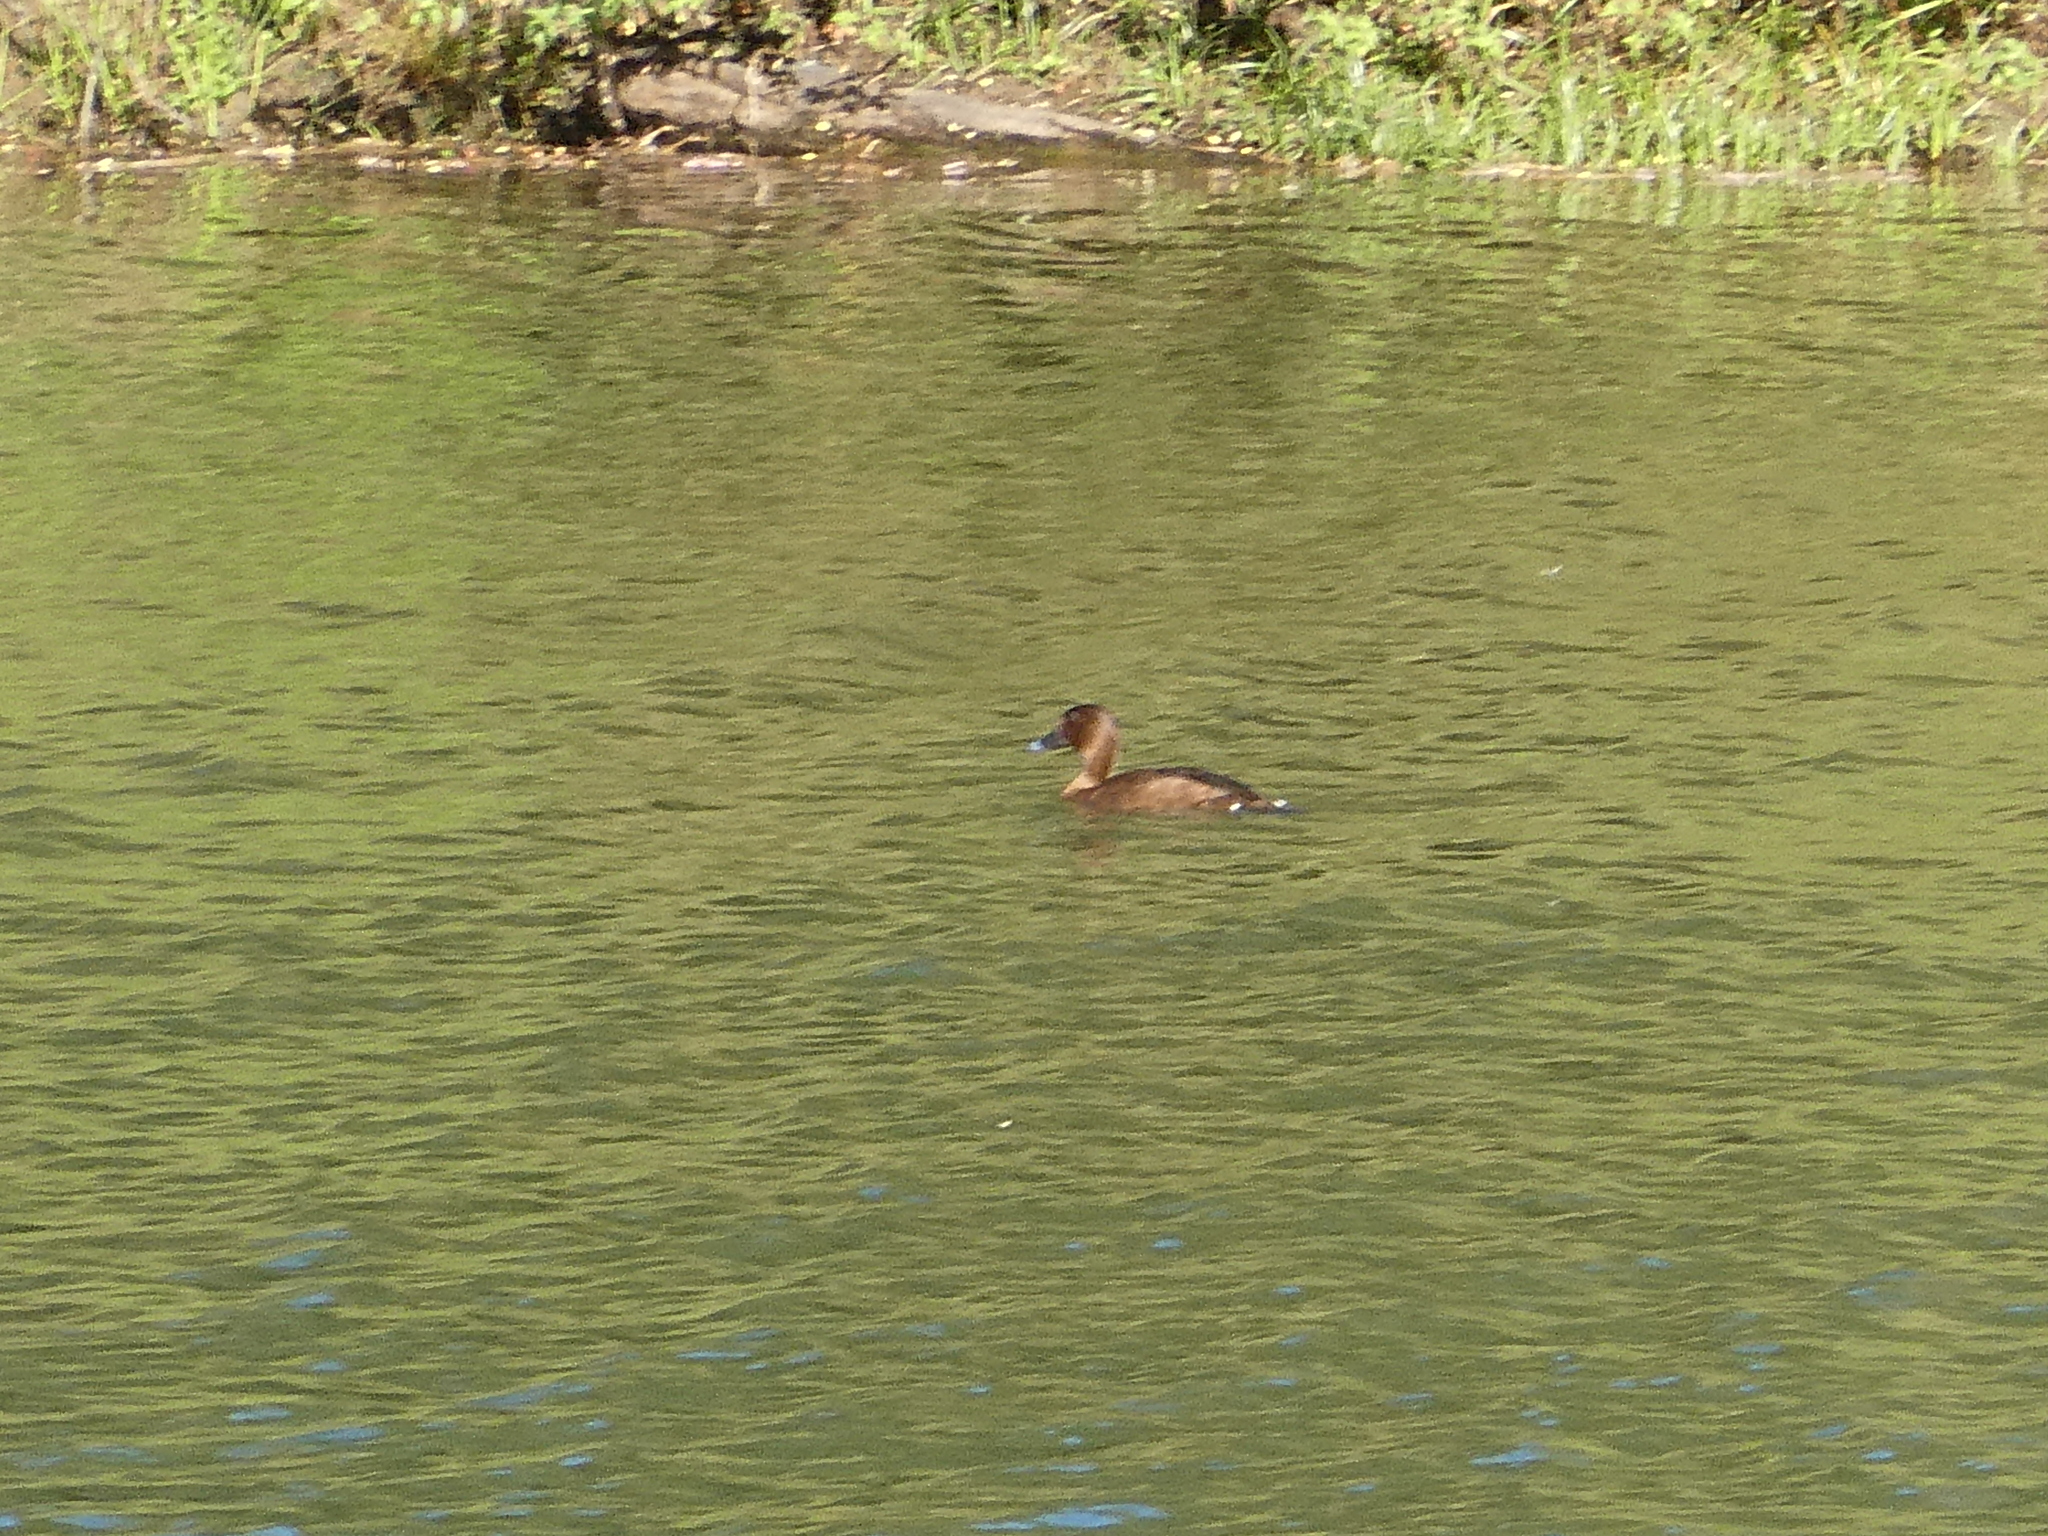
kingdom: Animalia
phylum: Chordata
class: Aves
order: Anseriformes
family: Anatidae
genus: Aythya
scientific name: Aythya australis
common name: Hardhead
